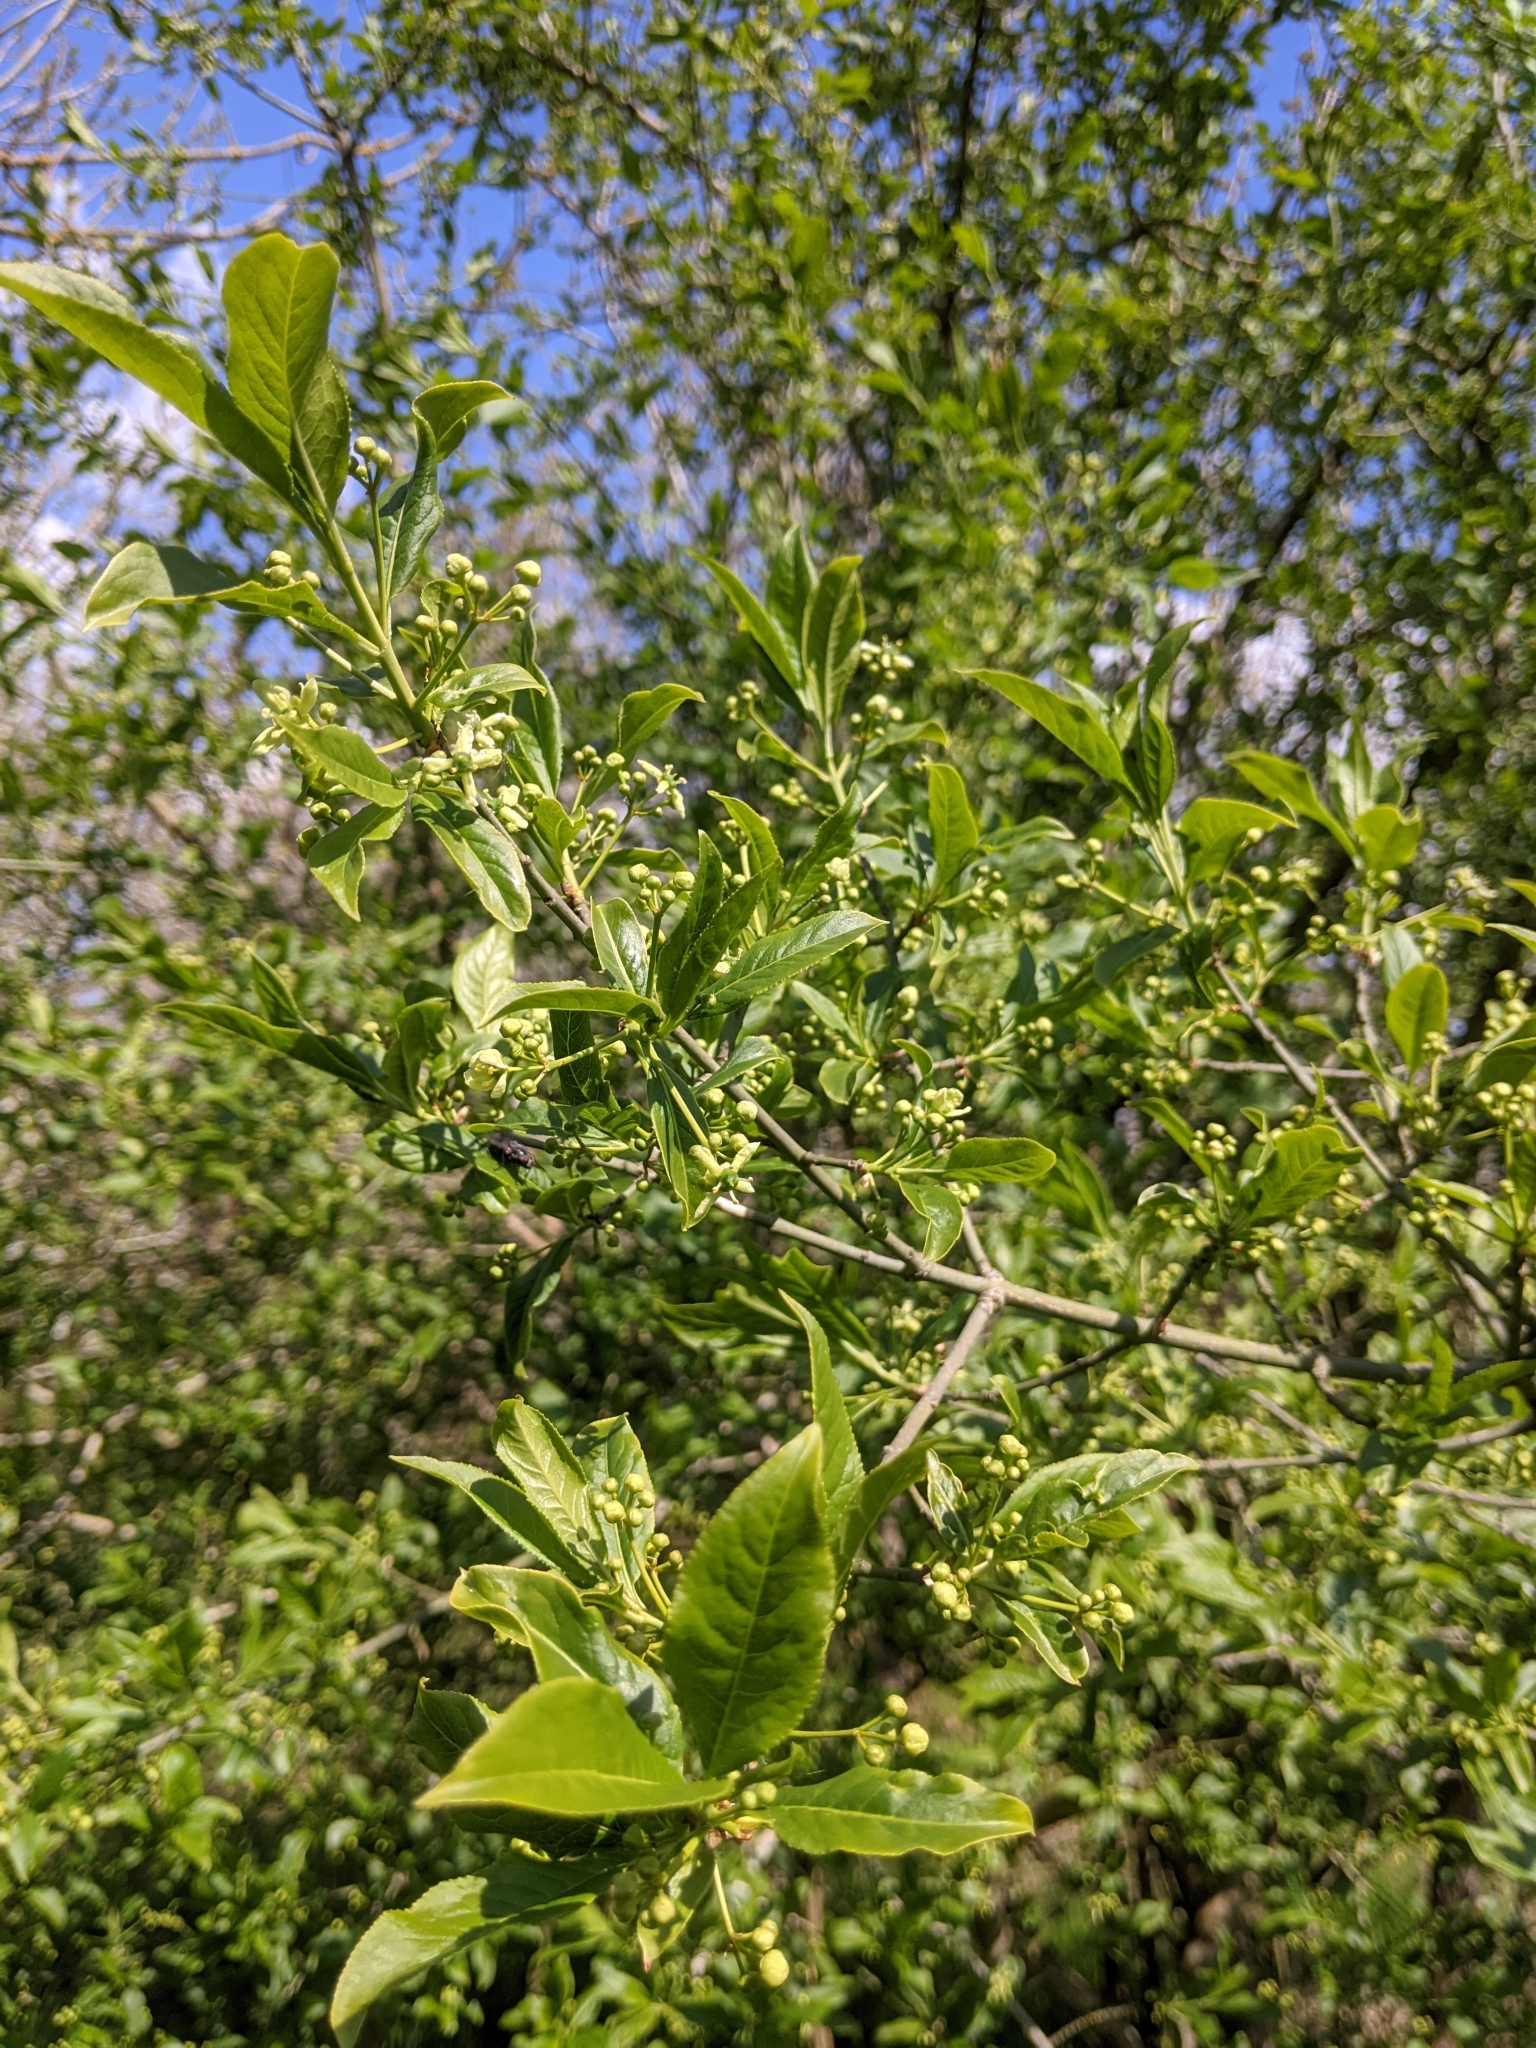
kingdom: Plantae
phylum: Tracheophyta
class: Magnoliopsida
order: Celastrales
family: Celastraceae
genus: Euonymus
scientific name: Euonymus europaeus
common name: Spindle
